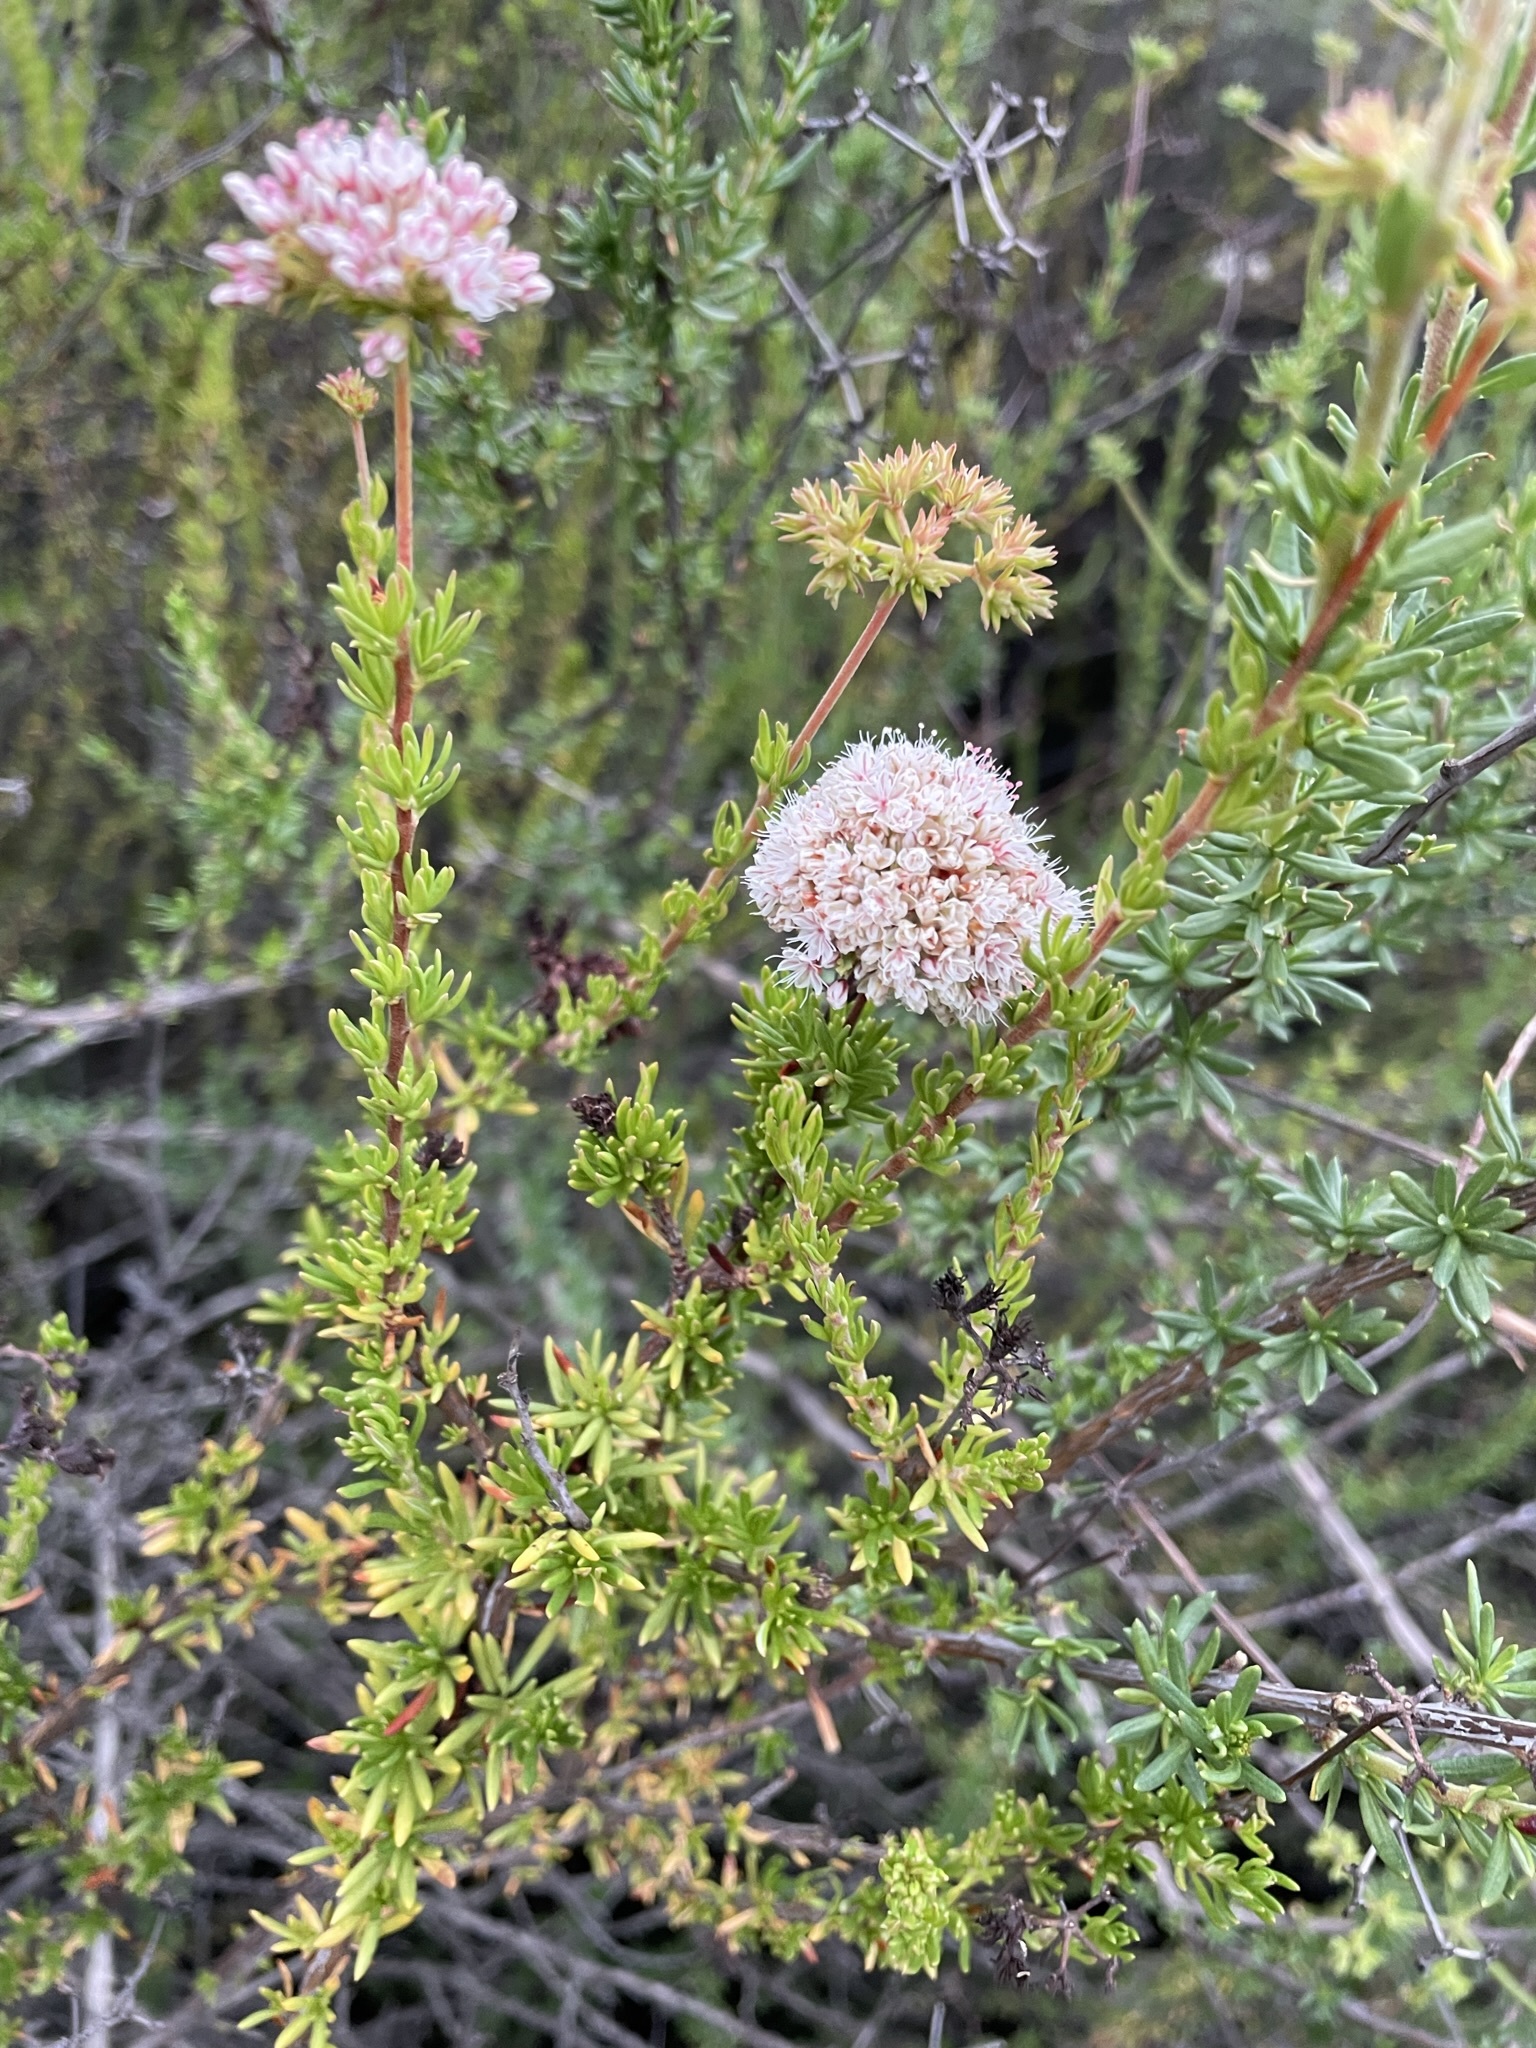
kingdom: Plantae
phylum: Tracheophyta
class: Magnoliopsida
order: Caryophyllales
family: Polygonaceae
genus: Eriogonum
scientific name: Eriogonum fasciculatum
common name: California wild buckwheat
